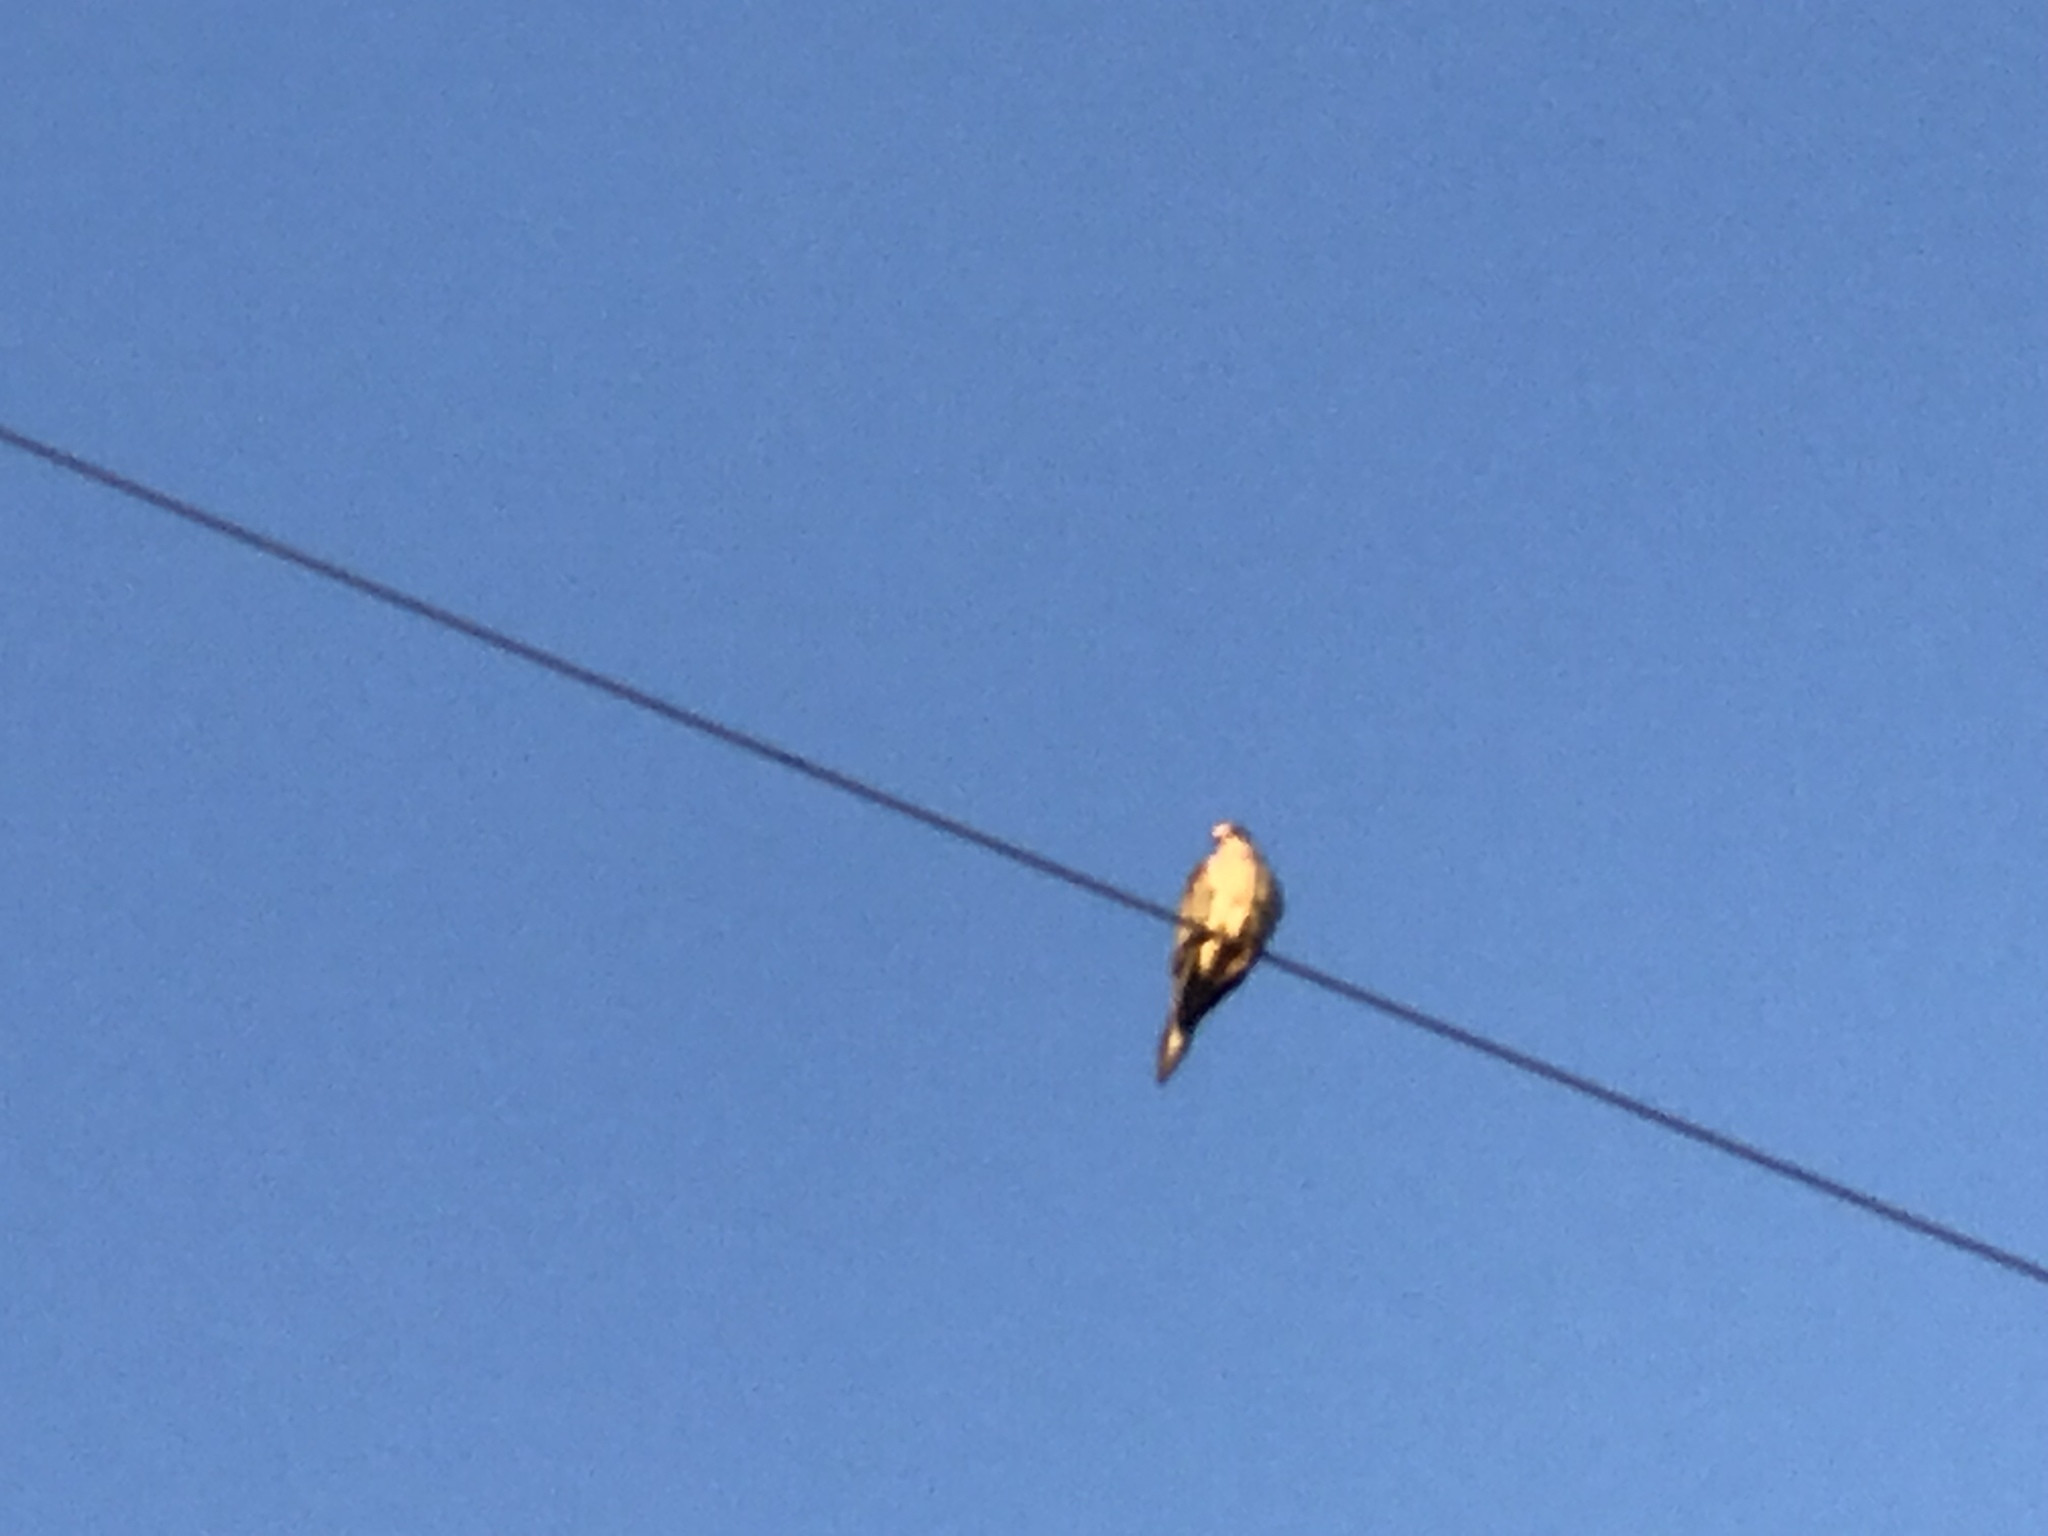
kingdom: Animalia
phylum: Chordata
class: Aves
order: Columbiformes
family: Columbidae
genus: Zenaida
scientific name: Zenaida macroura
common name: Mourning dove
